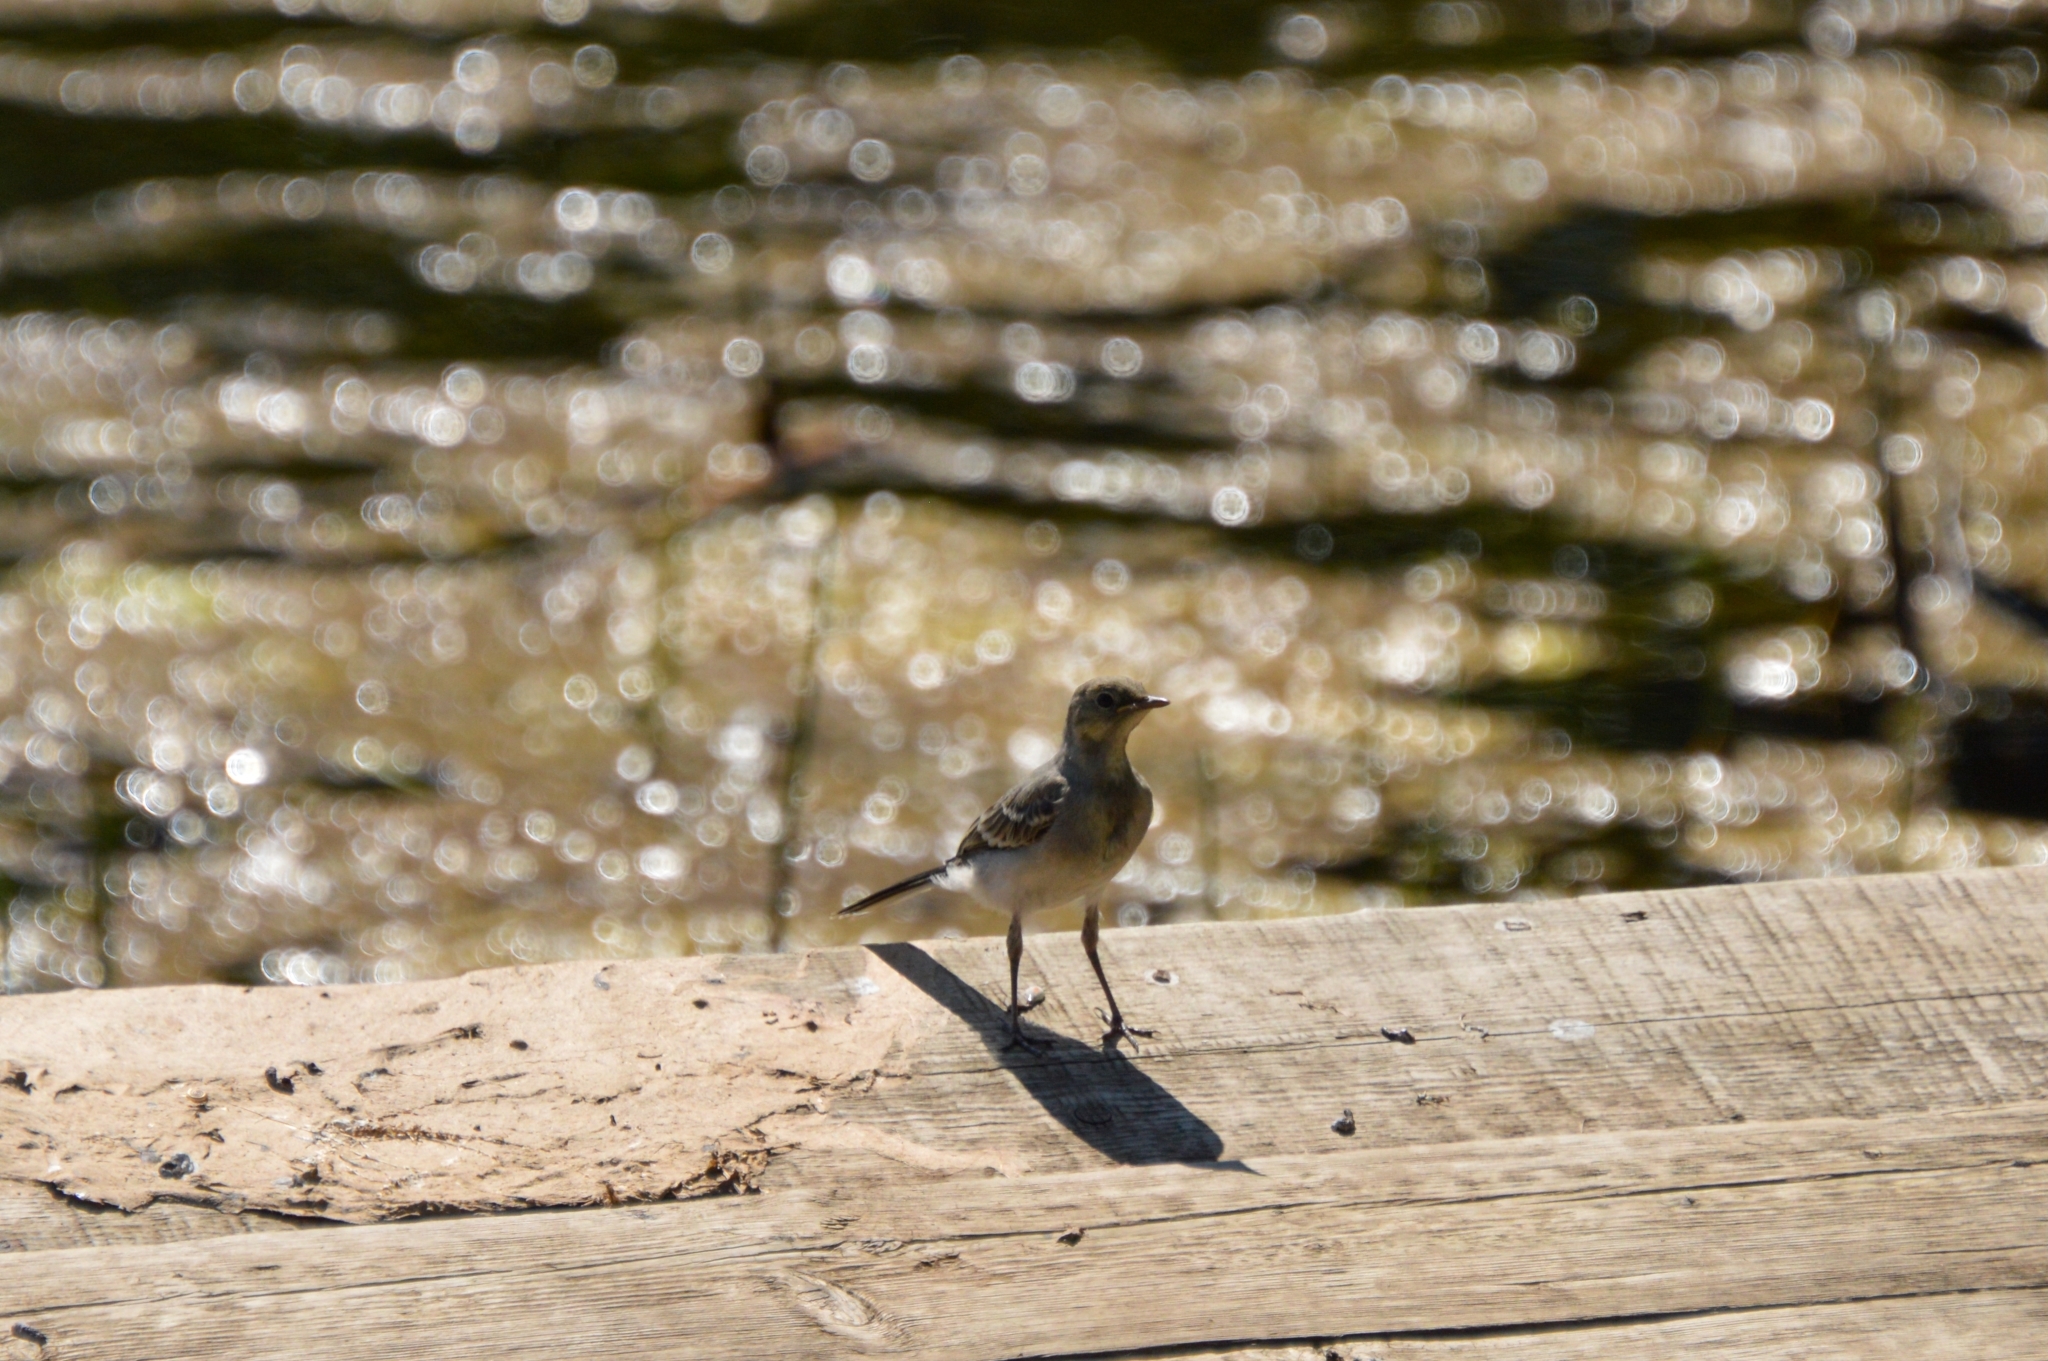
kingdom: Animalia
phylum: Chordata
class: Aves
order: Passeriformes
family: Motacillidae
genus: Motacilla
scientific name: Motacilla alba
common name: White wagtail
